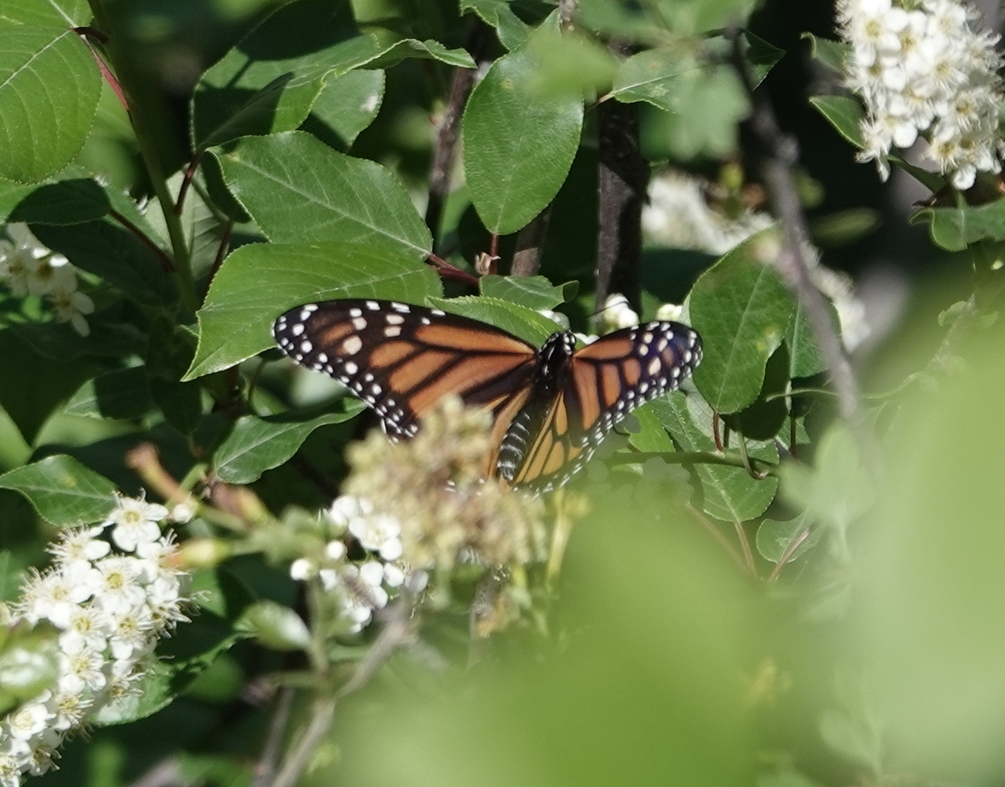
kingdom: Animalia
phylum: Arthropoda
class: Insecta
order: Lepidoptera
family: Nymphalidae
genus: Danaus
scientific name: Danaus plexippus
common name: Monarch
